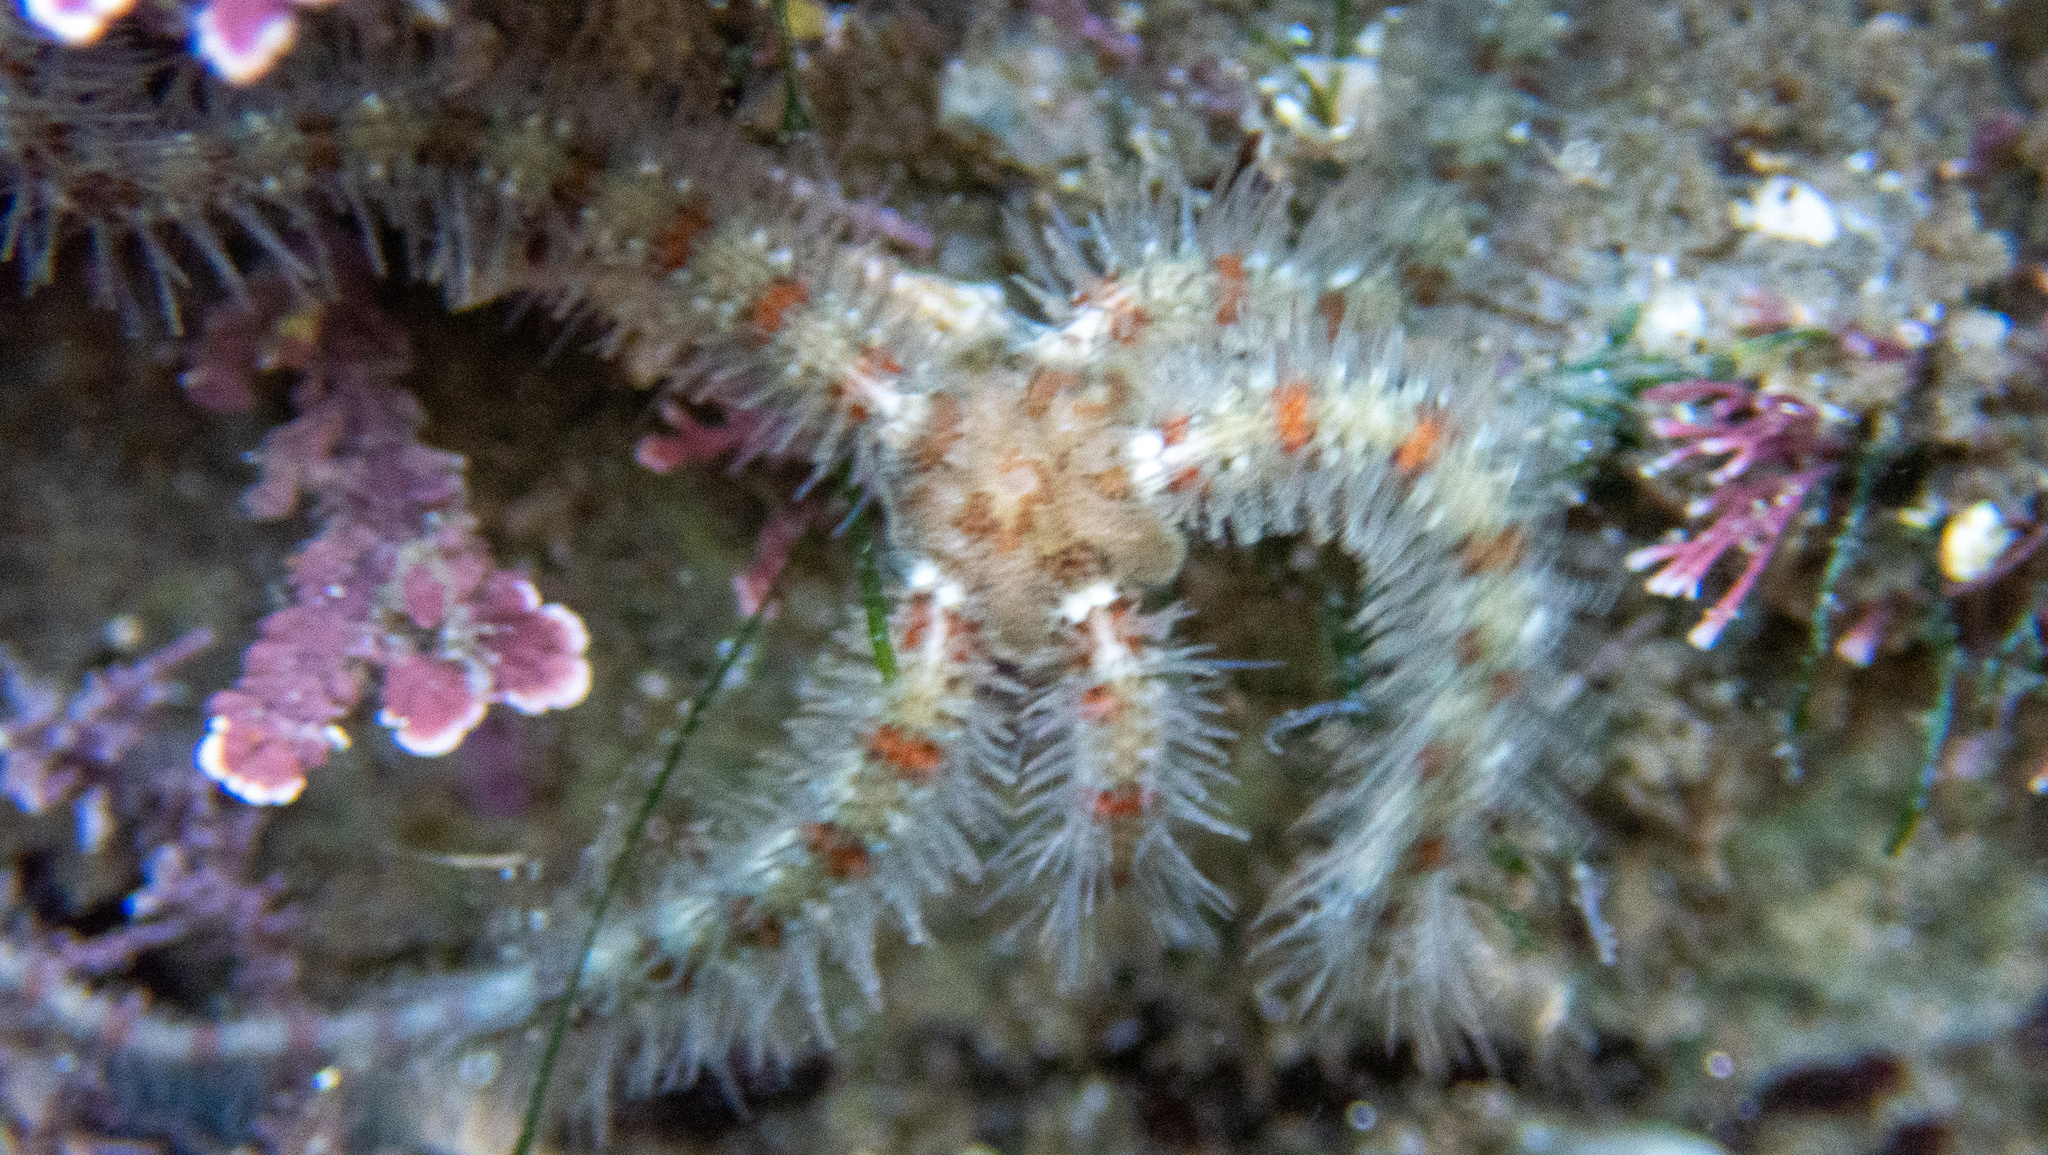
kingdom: Animalia
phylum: Echinodermata
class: Ophiuroidea
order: Amphilepidida
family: Ophiotrichidae
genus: Ophiothrix
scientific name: Ophiothrix spiculata
